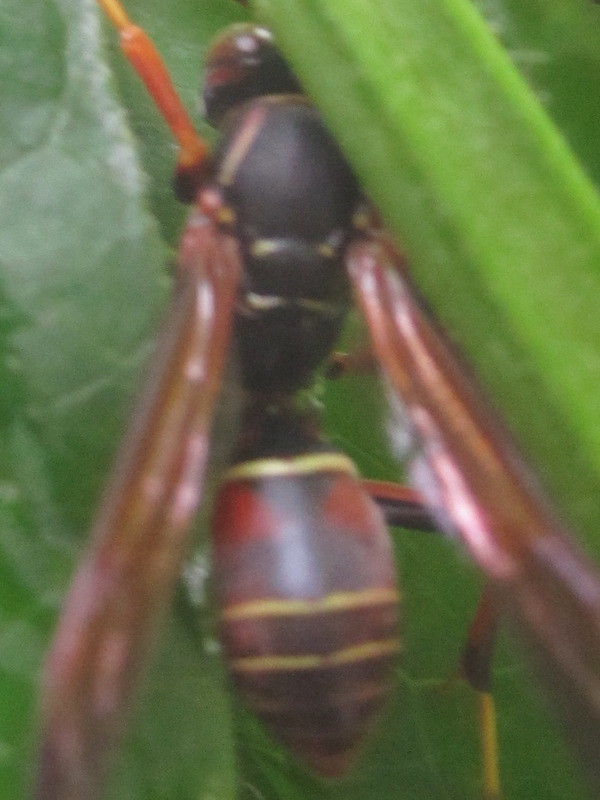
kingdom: Animalia
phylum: Arthropoda
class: Insecta
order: Hymenoptera
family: Eumenidae
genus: Polistes
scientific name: Polistes fuscatus
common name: Dark paper wasp
